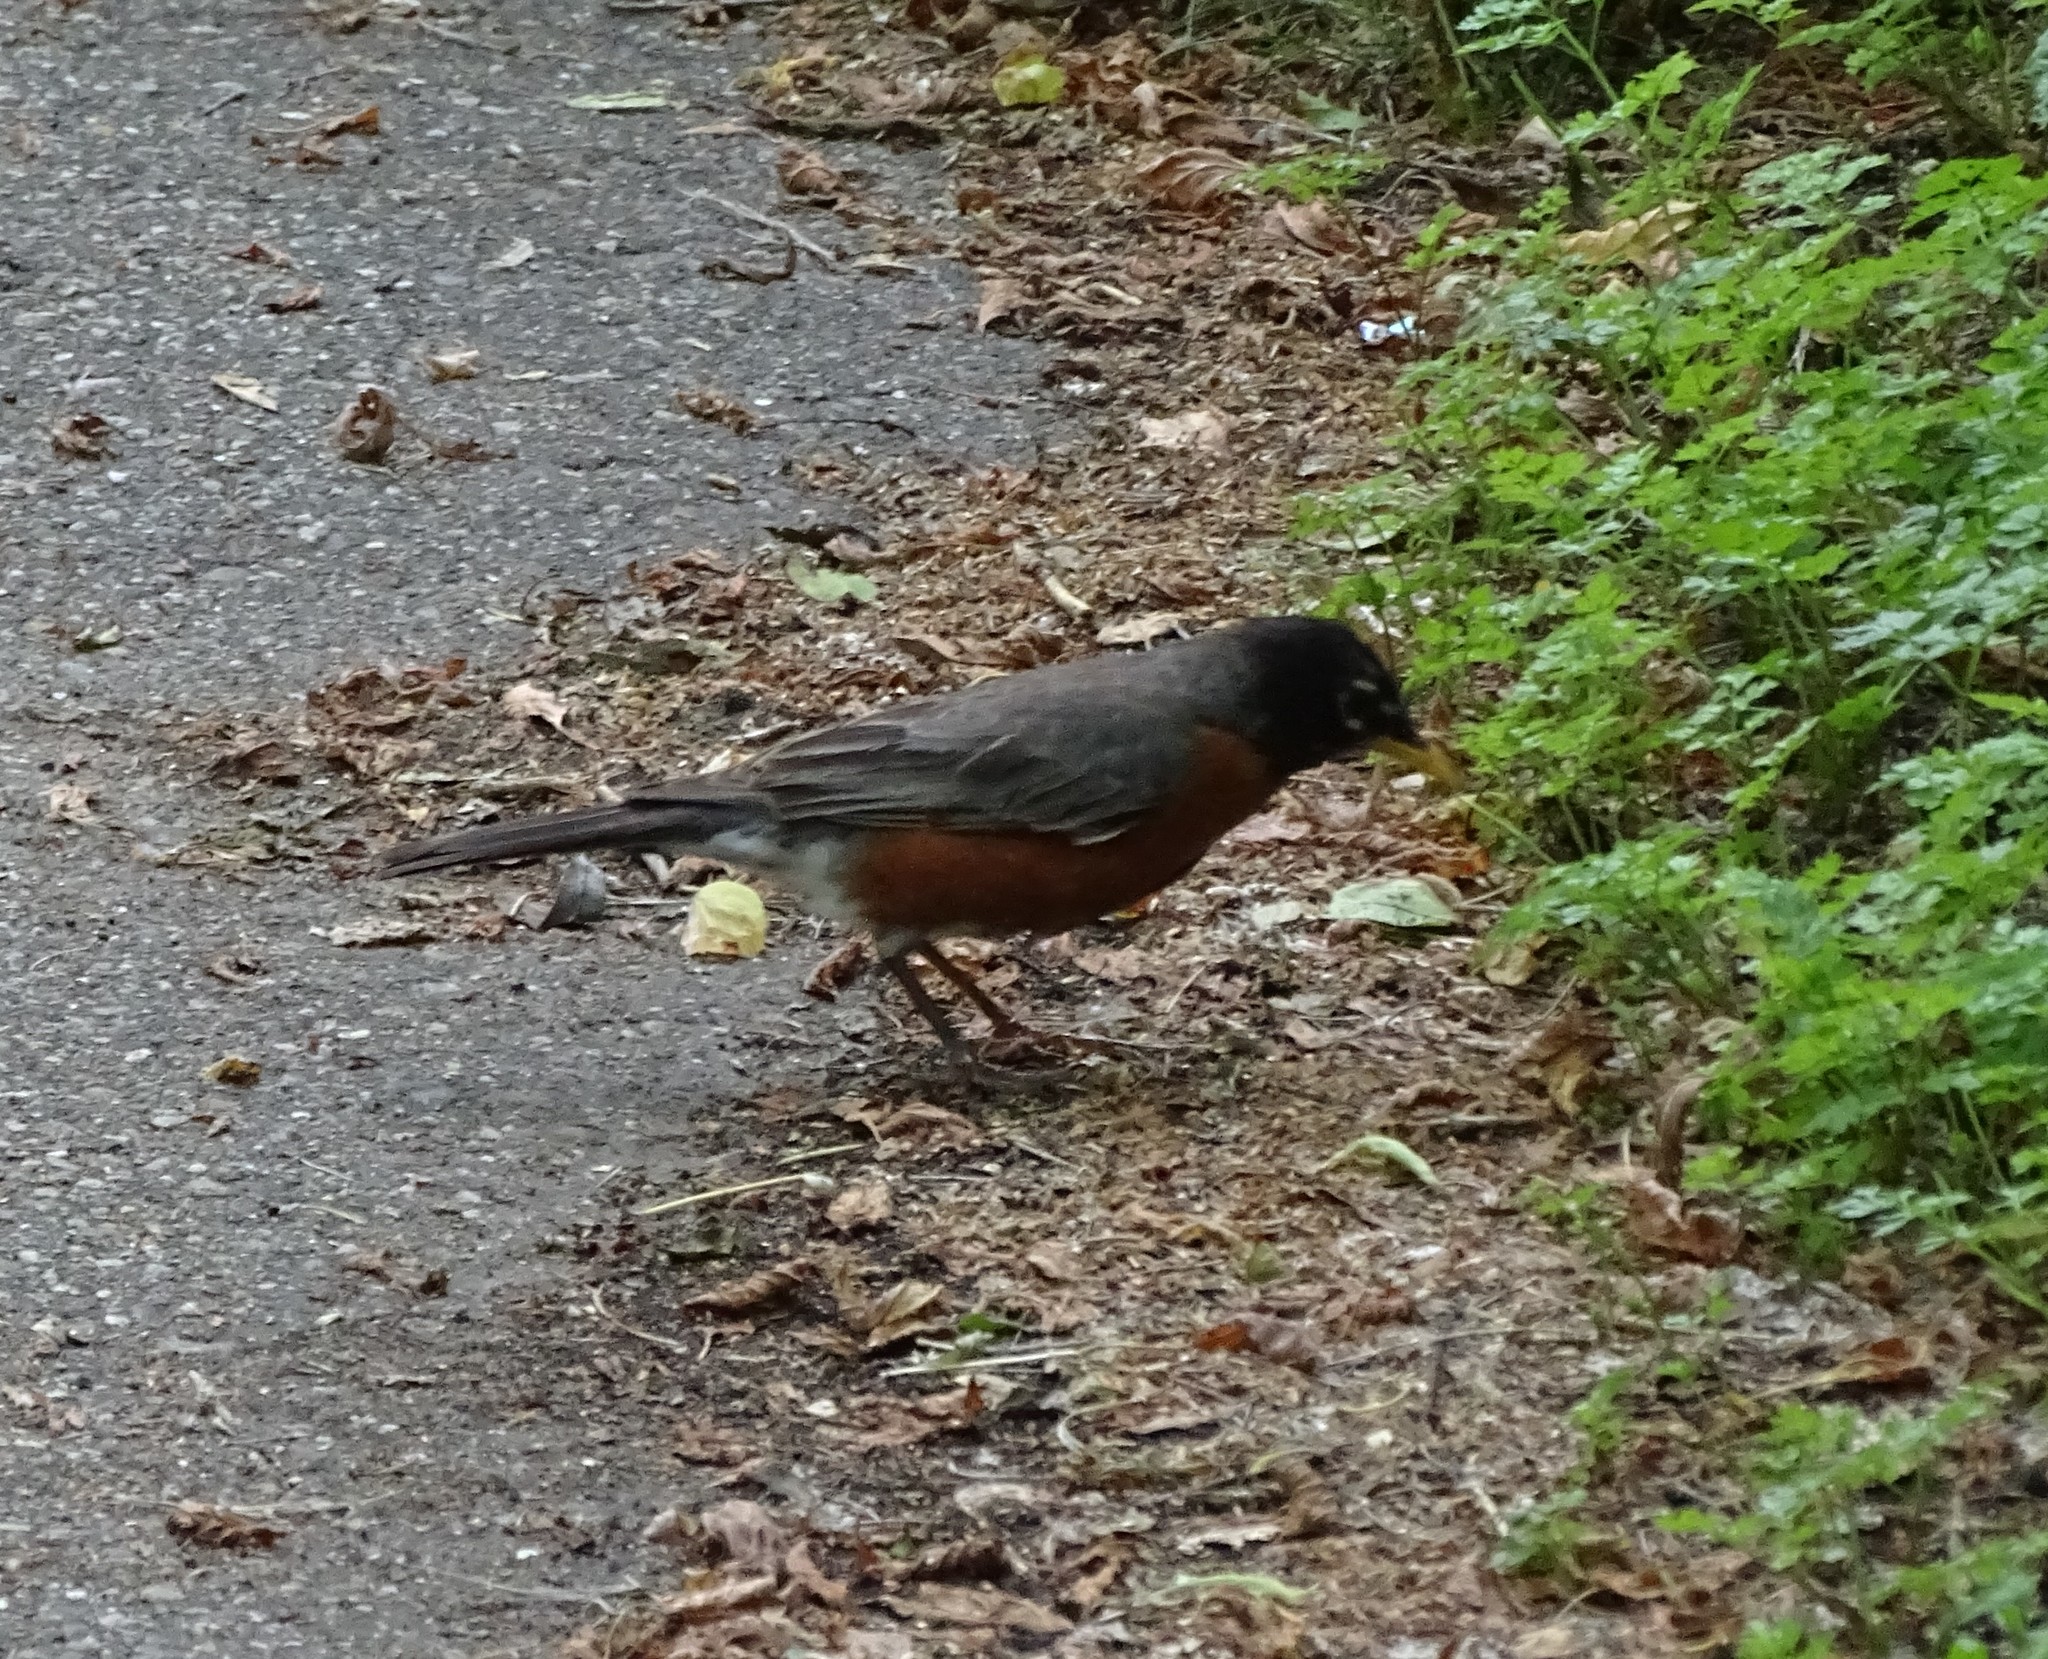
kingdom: Animalia
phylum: Chordata
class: Aves
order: Passeriformes
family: Turdidae
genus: Turdus
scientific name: Turdus migratorius
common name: American robin
